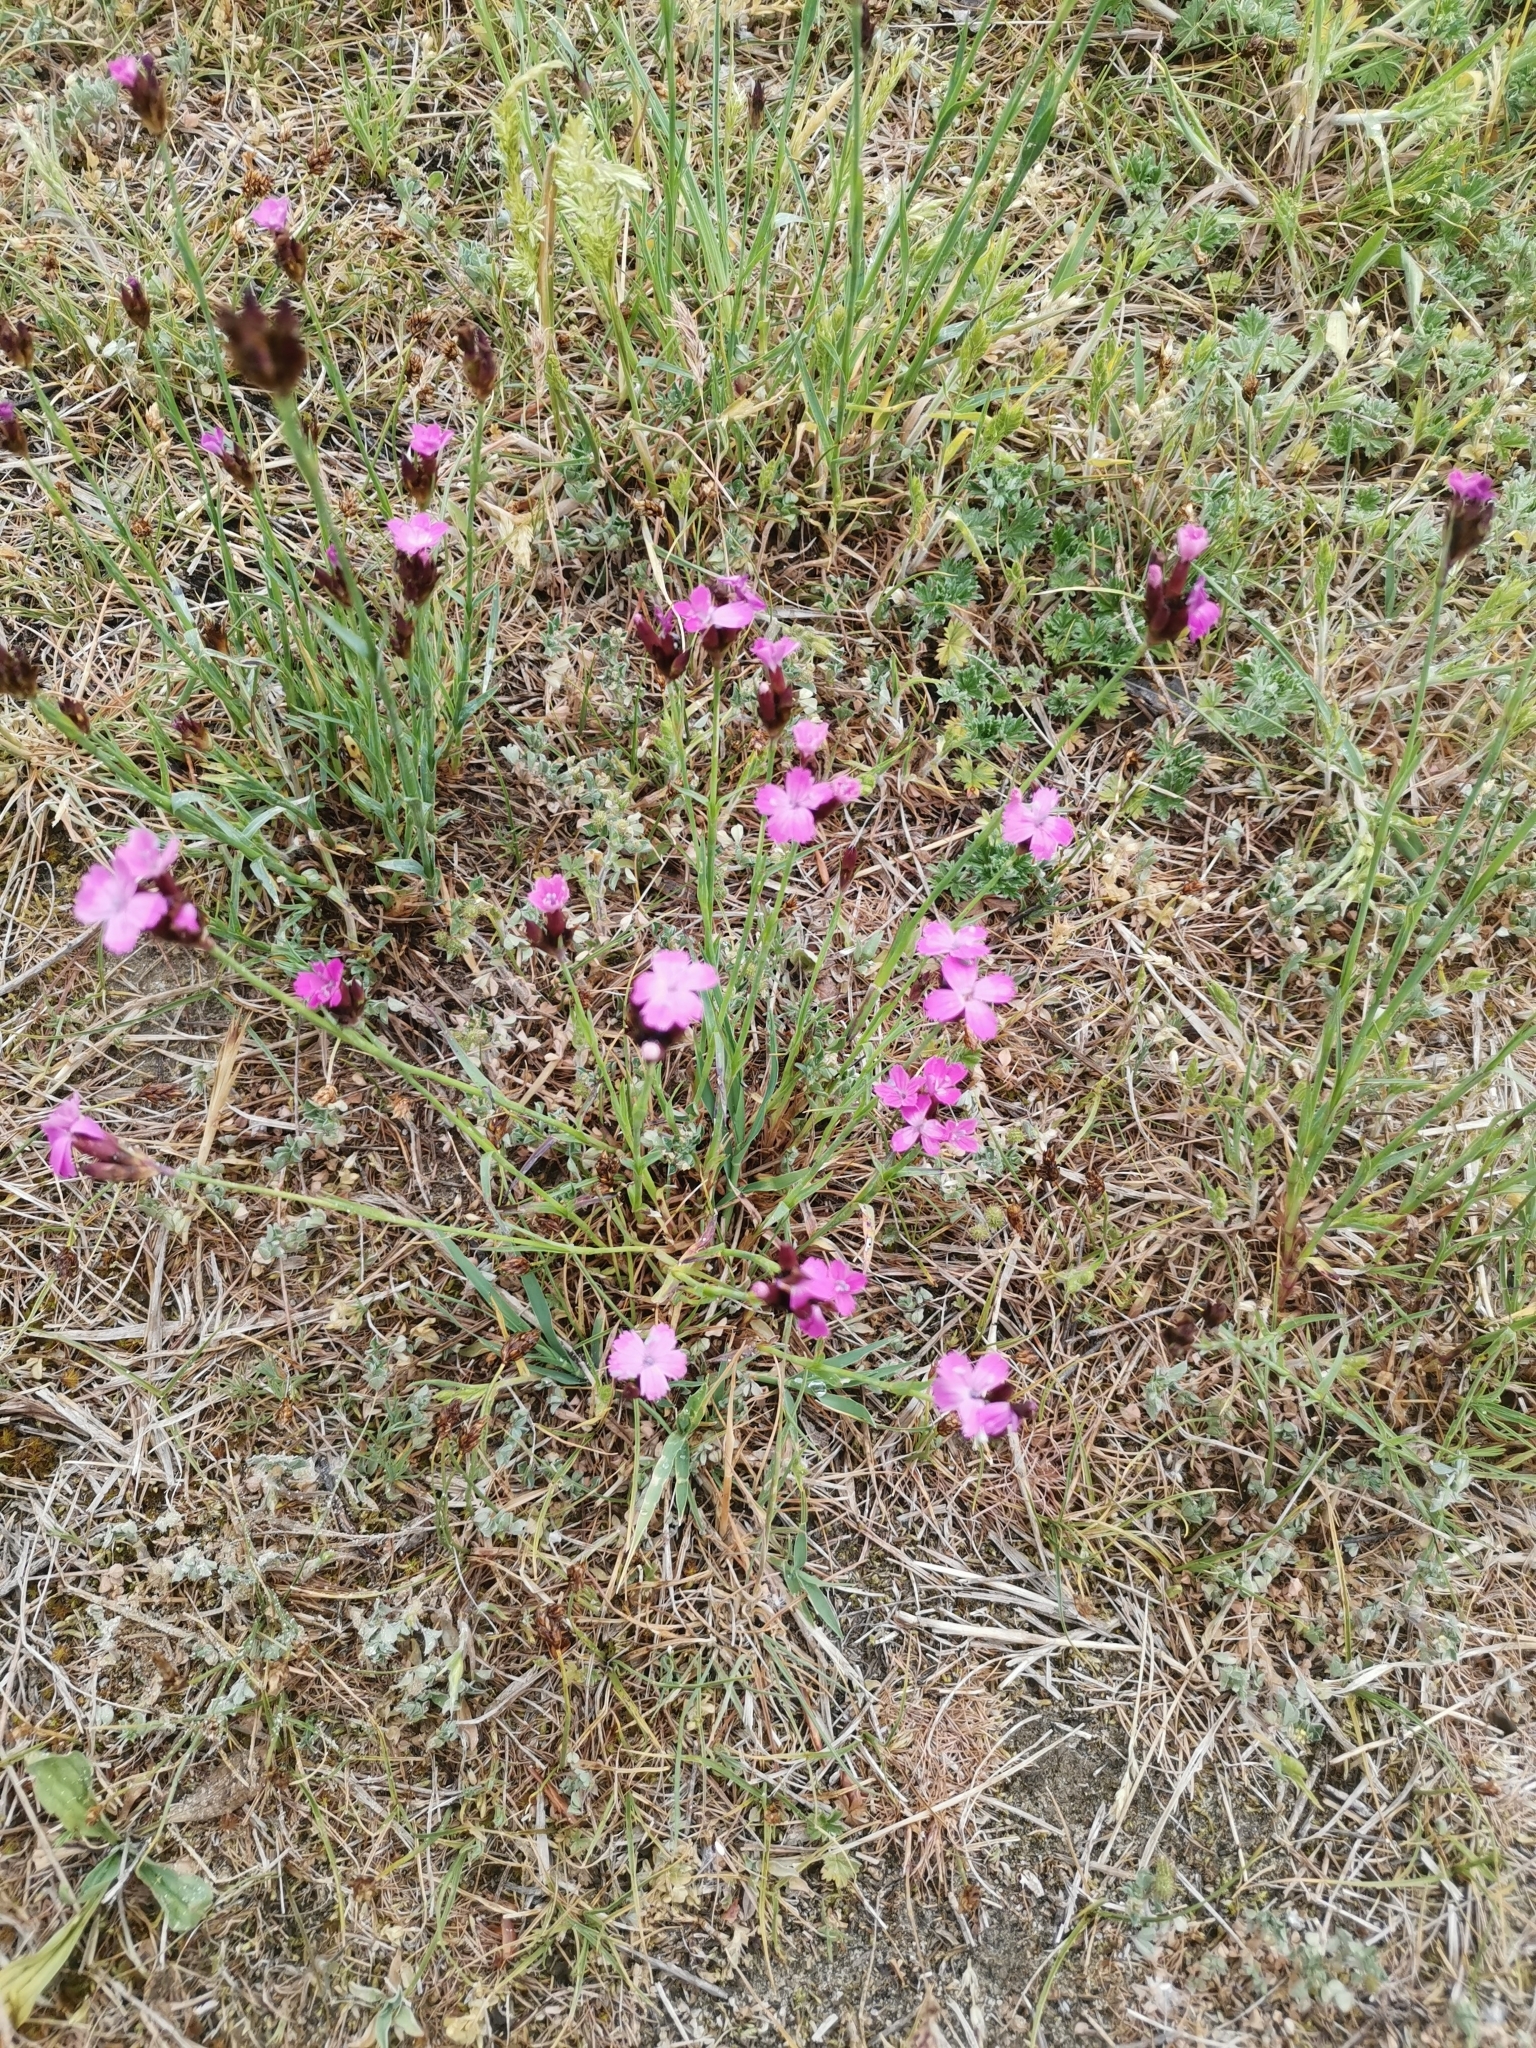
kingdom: Plantae
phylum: Tracheophyta
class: Magnoliopsida
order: Caryophyllales
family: Caryophyllaceae
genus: Dianthus
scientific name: Dianthus pontederae
